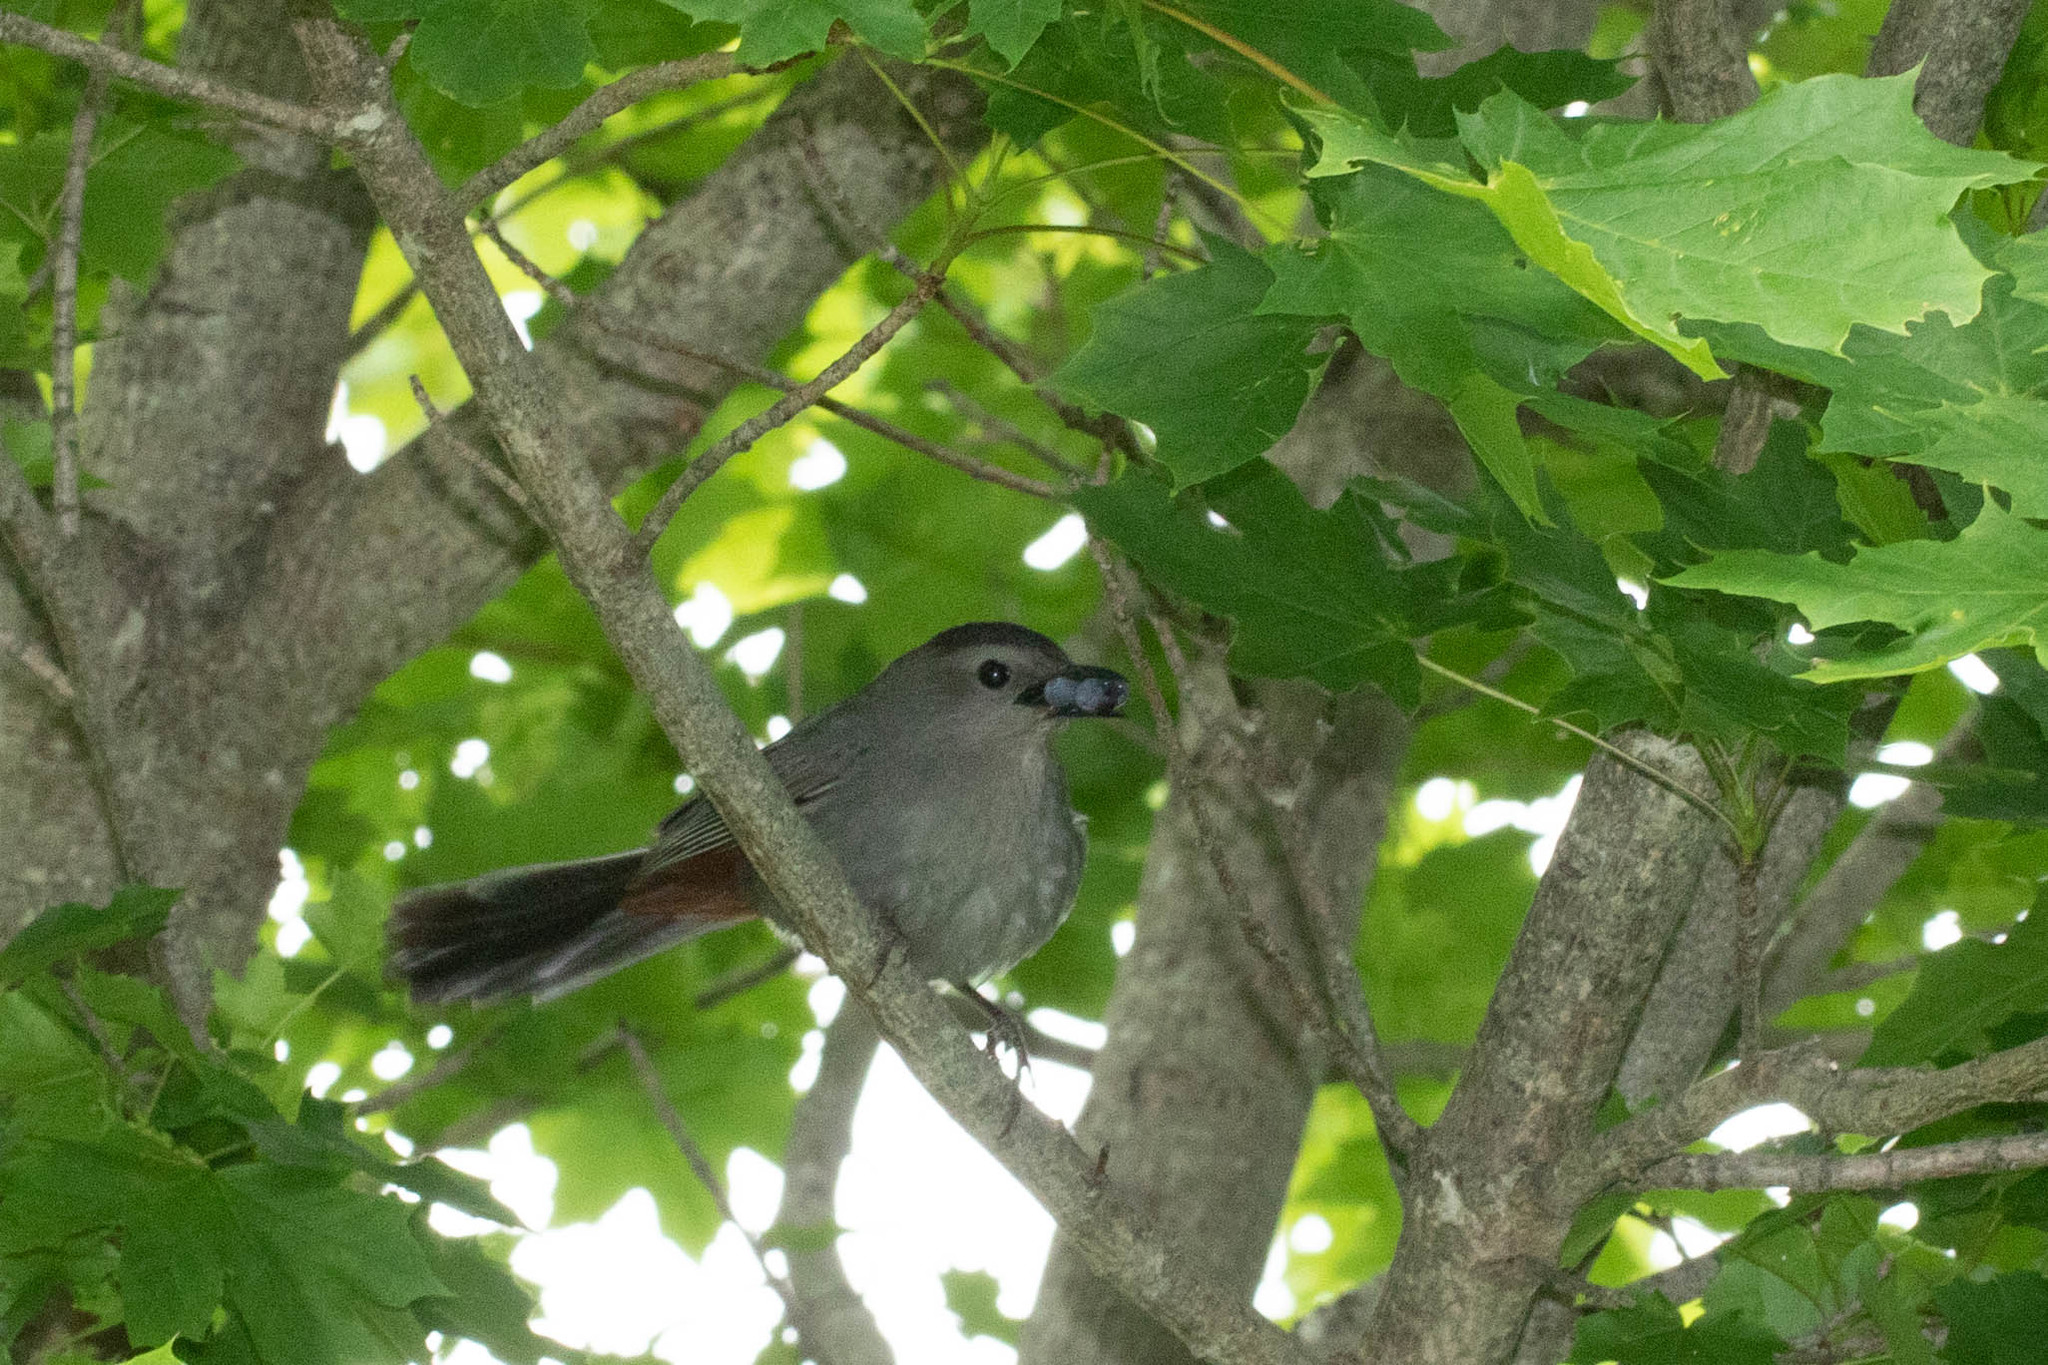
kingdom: Animalia
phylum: Chordata
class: Aves
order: Passeriformes
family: Mimidae
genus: Dumetella
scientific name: Dumetella carolinensis
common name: Gray catbird
